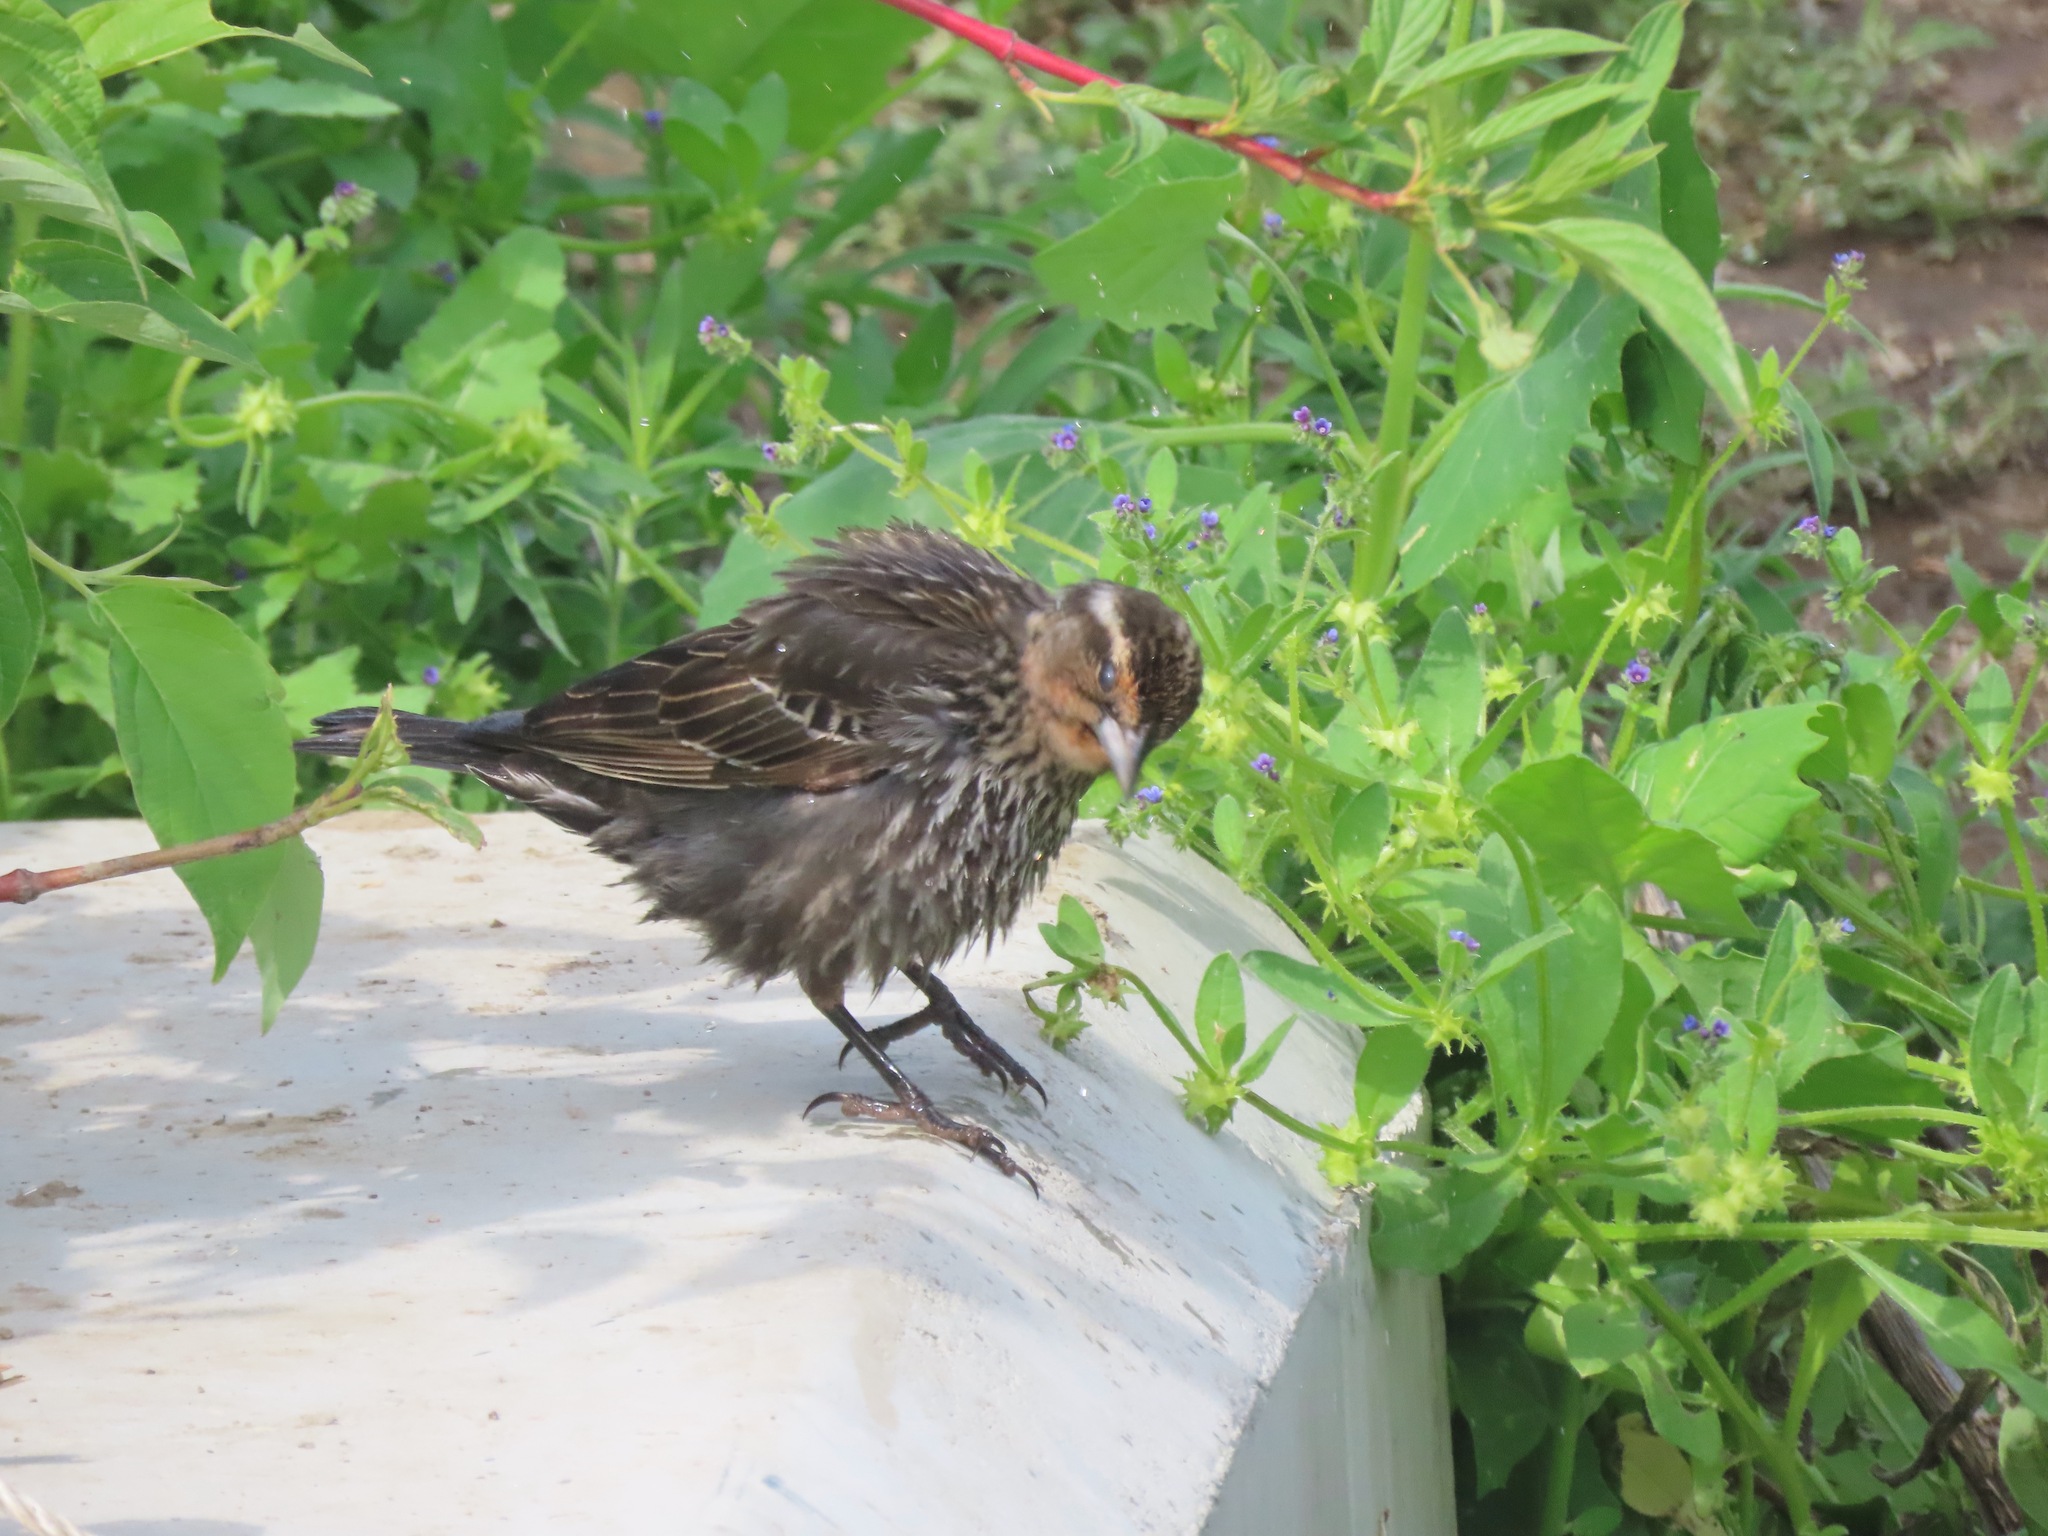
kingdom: Animalia
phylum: Chordata
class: Aves
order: Passeriformes
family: Icteridae
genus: Agelaius
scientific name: Agelaius phoeniceus
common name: Red-winged blackbird
